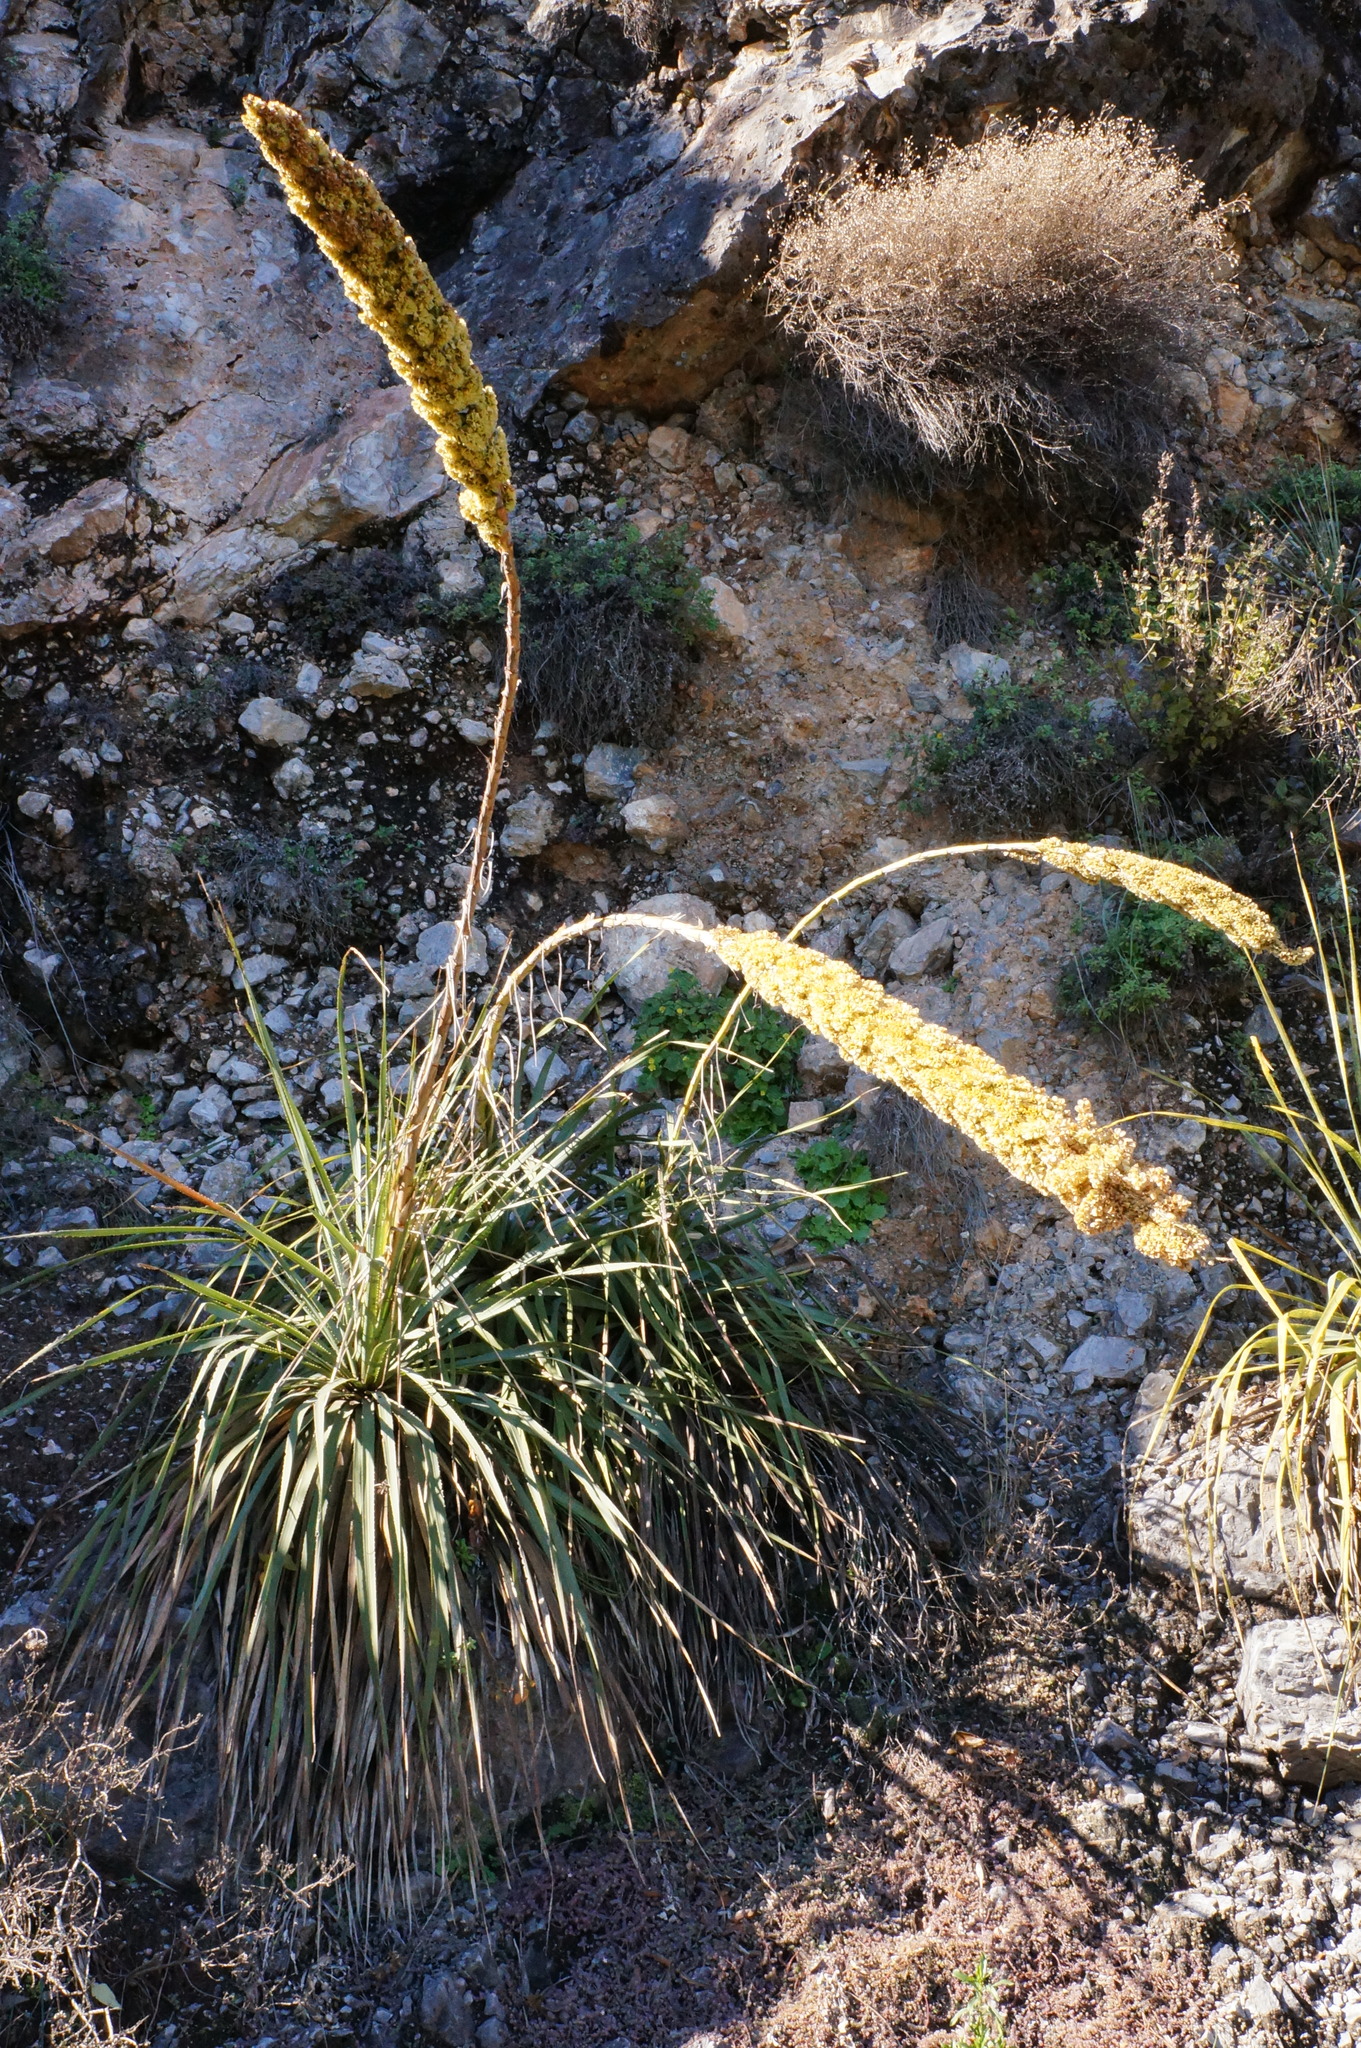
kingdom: Plantae
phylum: Tracheophyta
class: Liliopsida
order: Asparagales
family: Asparagaceae
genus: Dasylirion
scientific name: Dasylirion berlandieri
